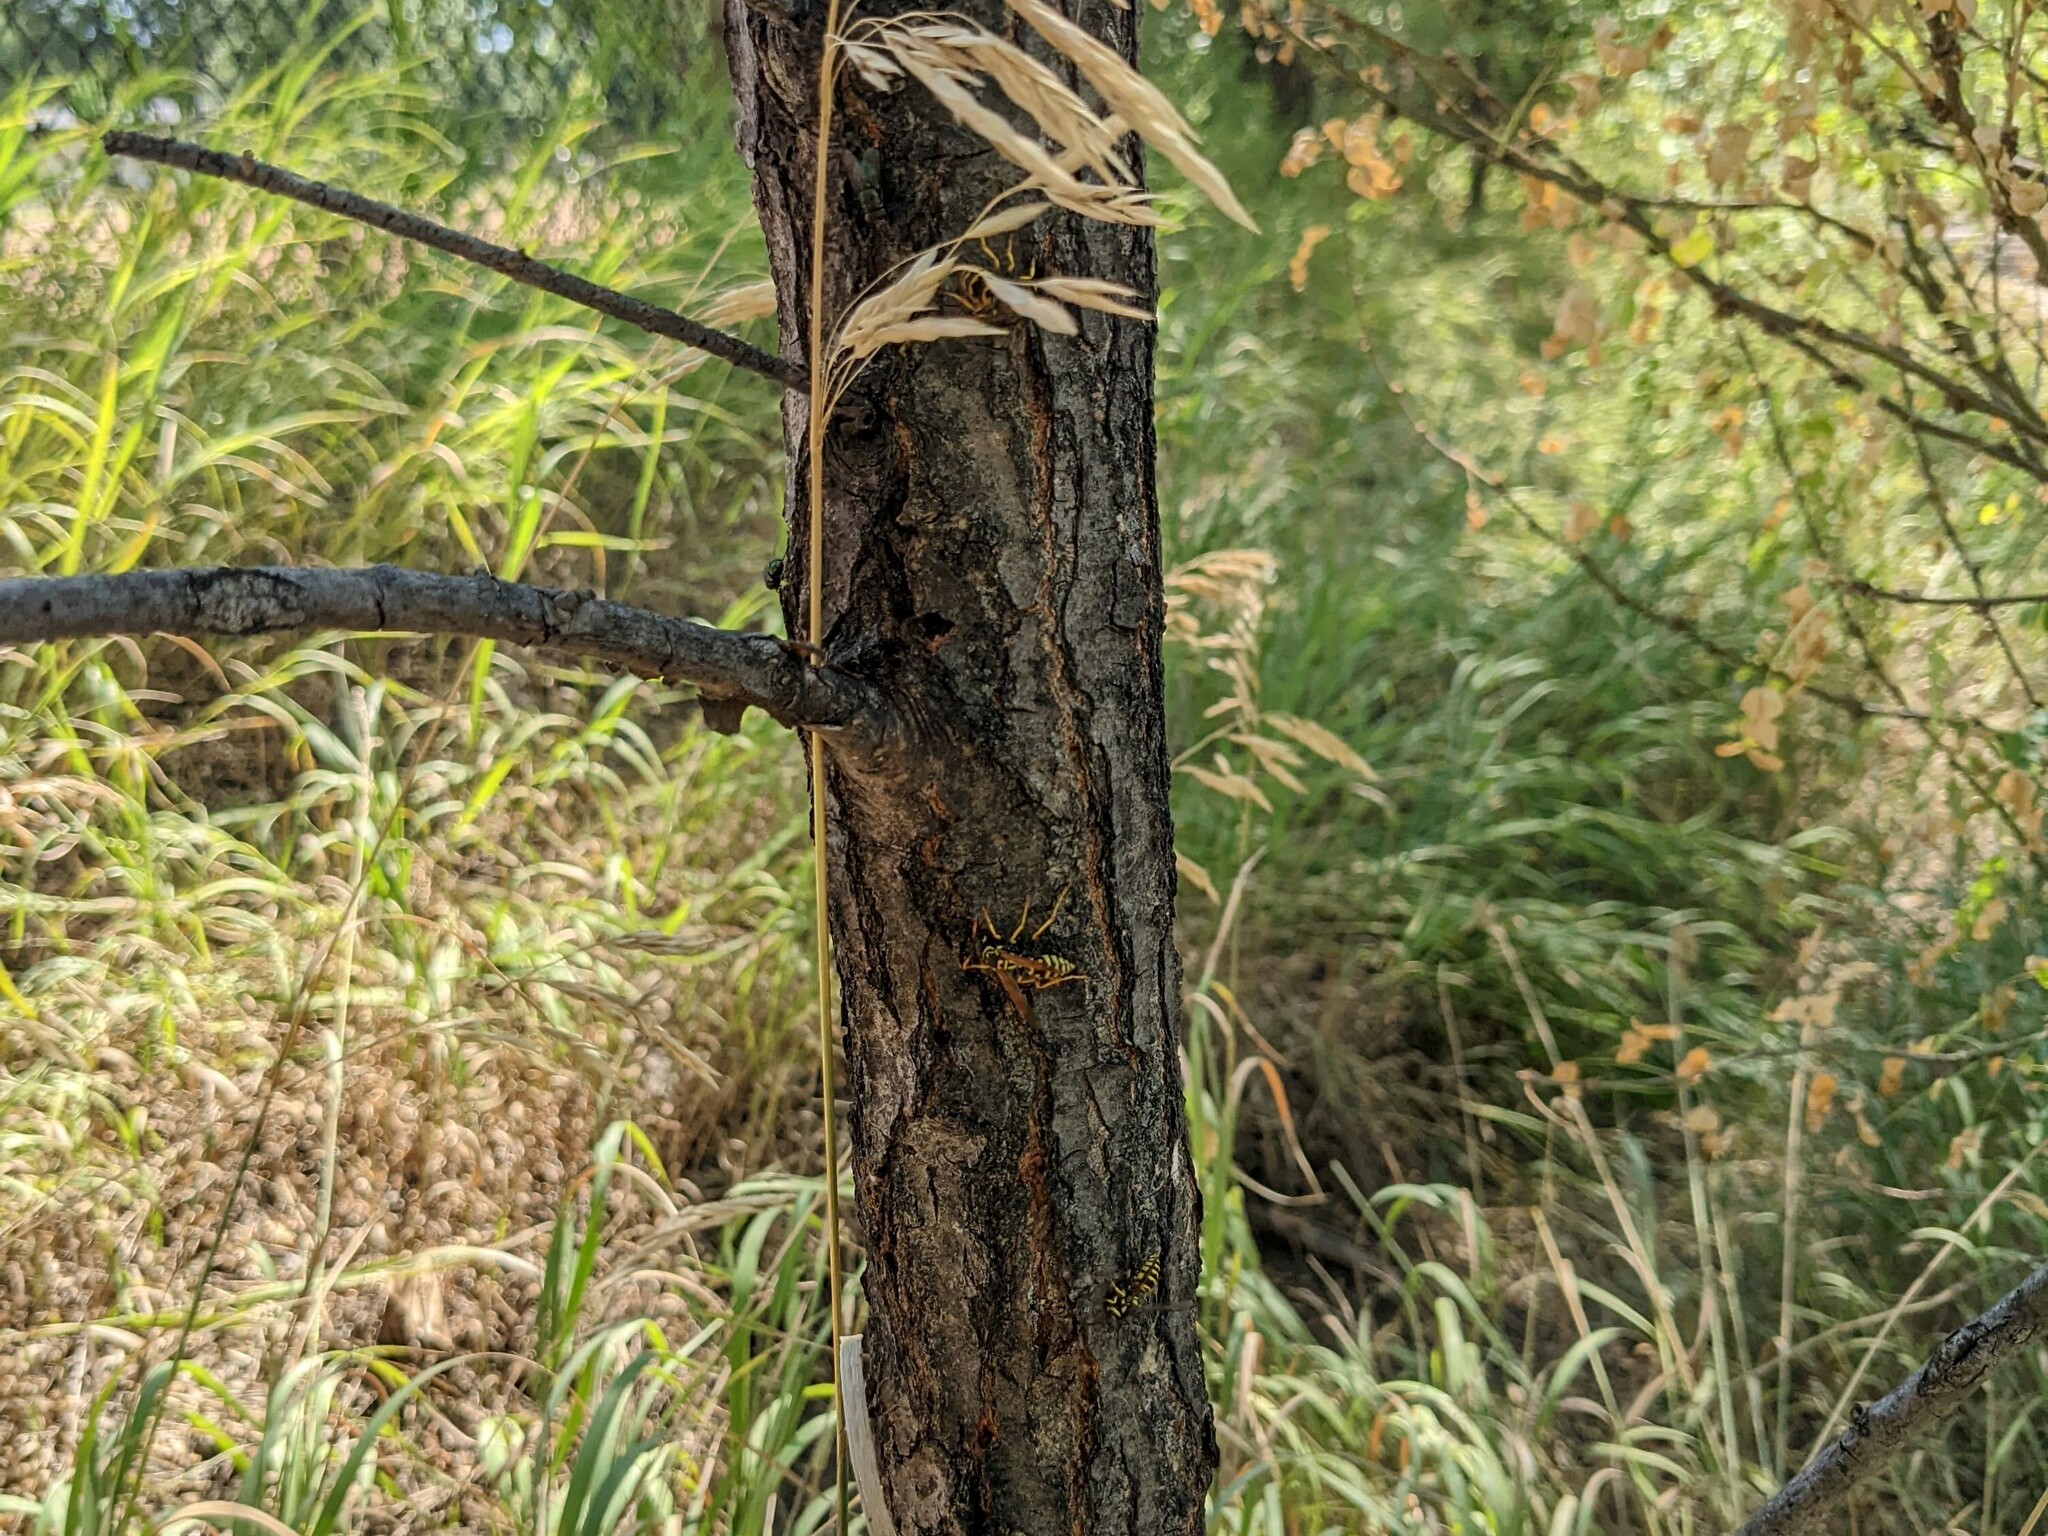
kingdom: Animalia
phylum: Arthropoda
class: Insecta
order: Hymenoptera
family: Vespidae
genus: Vespula
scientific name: Vespula maculifrons
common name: Eastern yellowjacket
